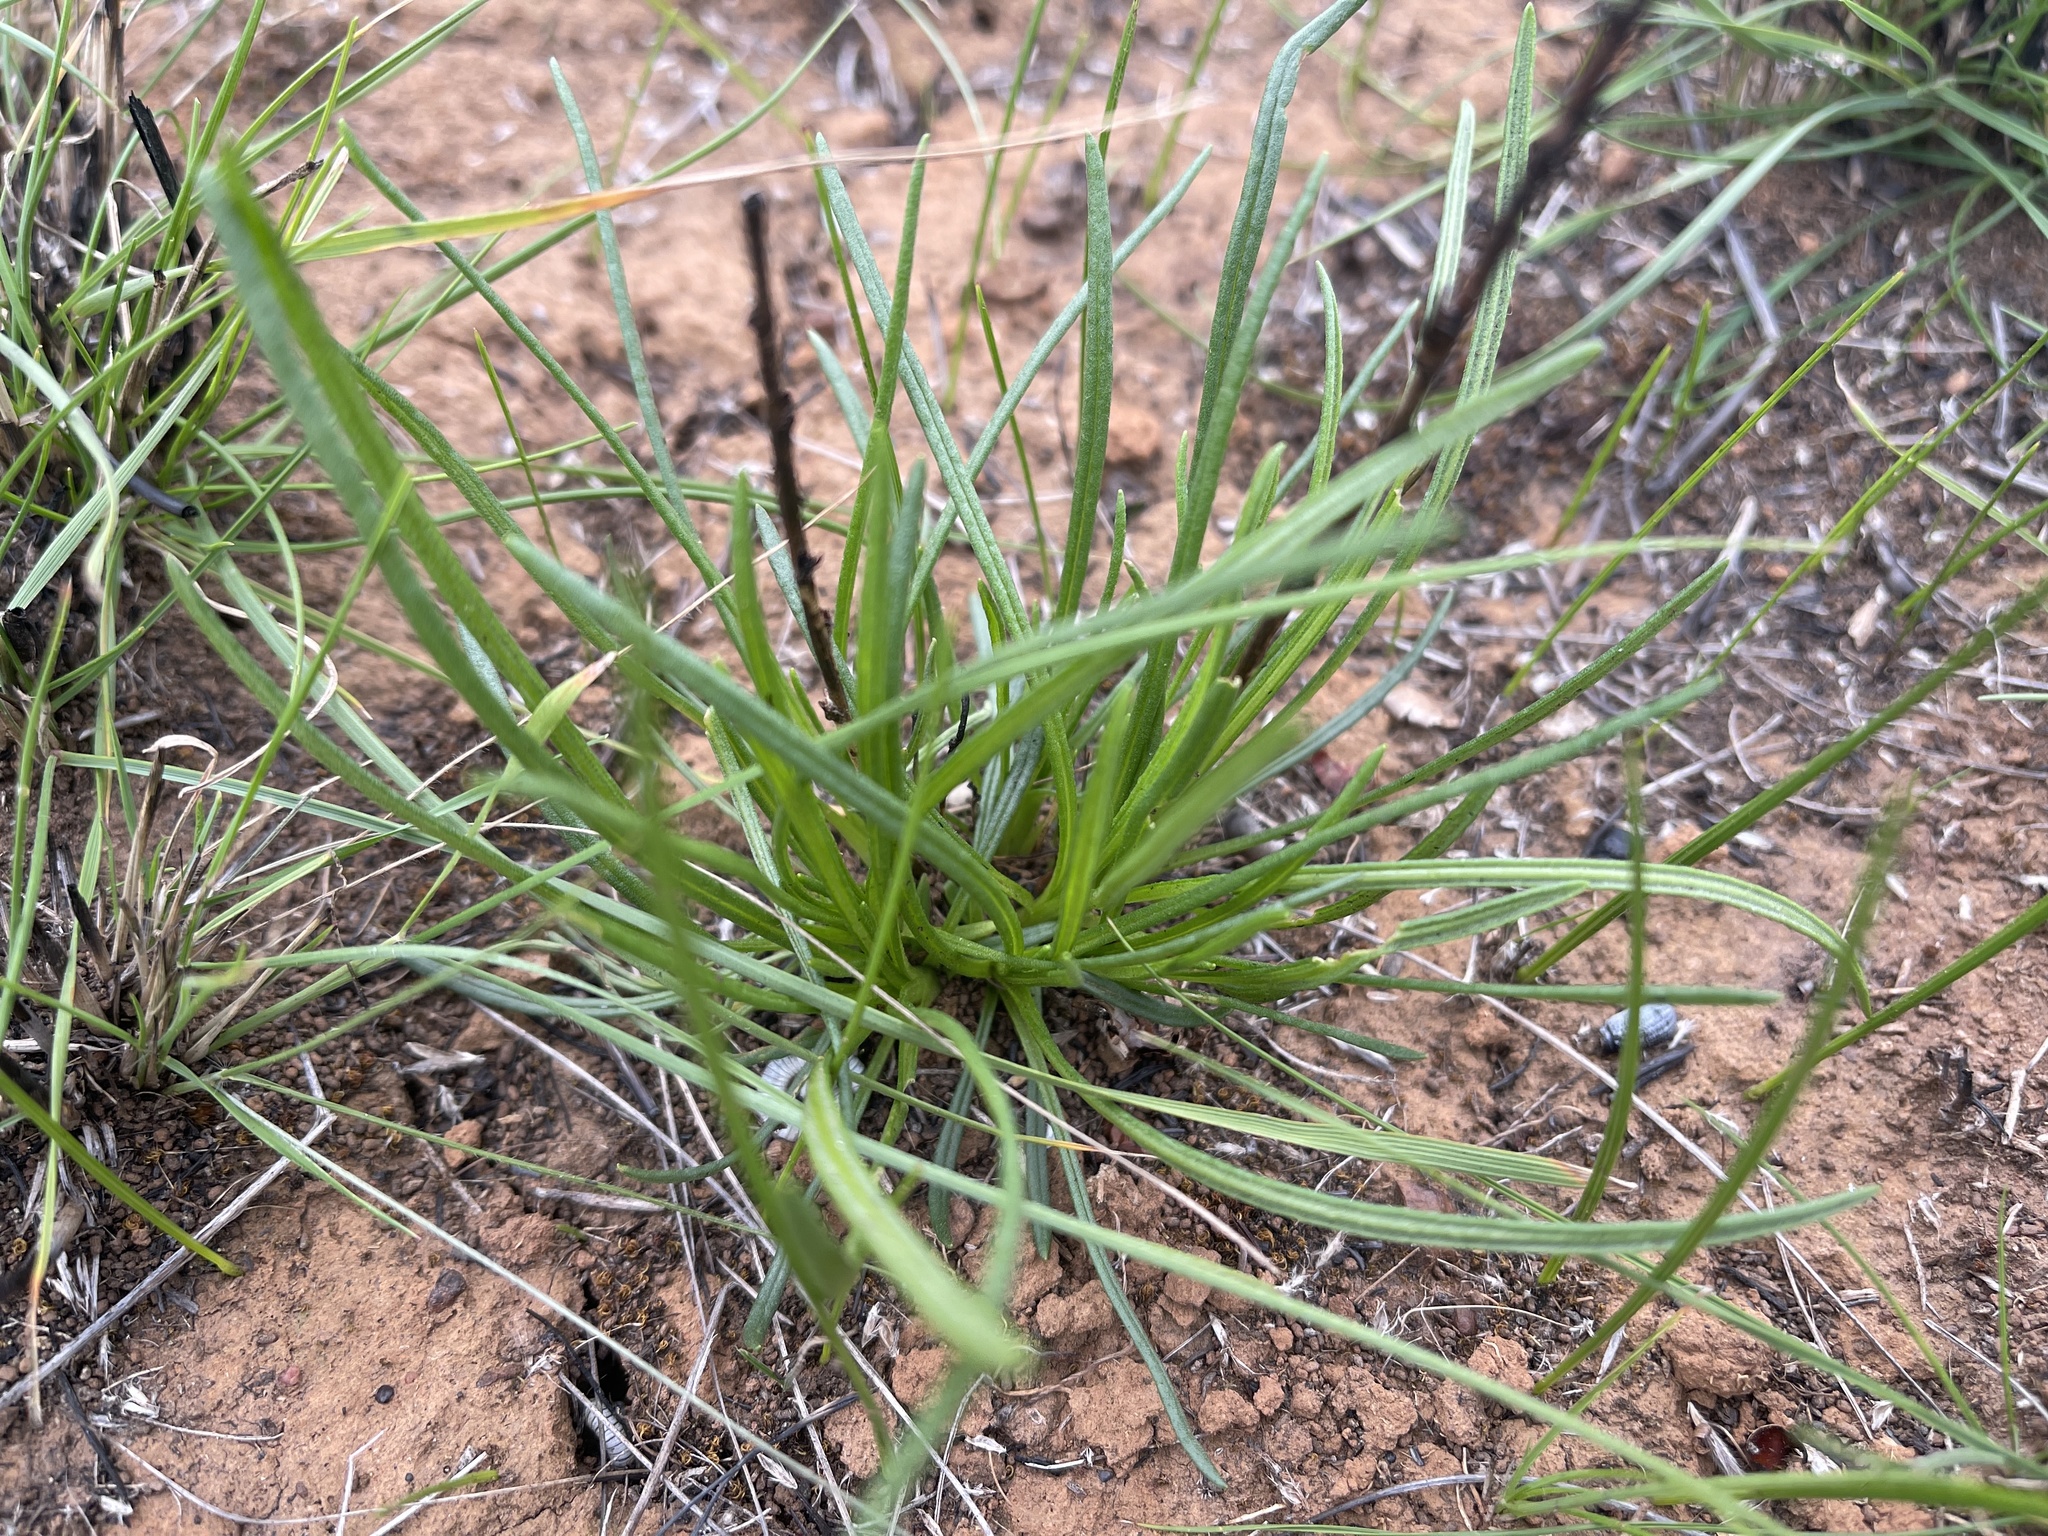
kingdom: Plantae
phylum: Tracheophyta
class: Magnoliopsida
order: Asterales
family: Asteraceae
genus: Rutidosis
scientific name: Rutidosis leptorrhynchoides
